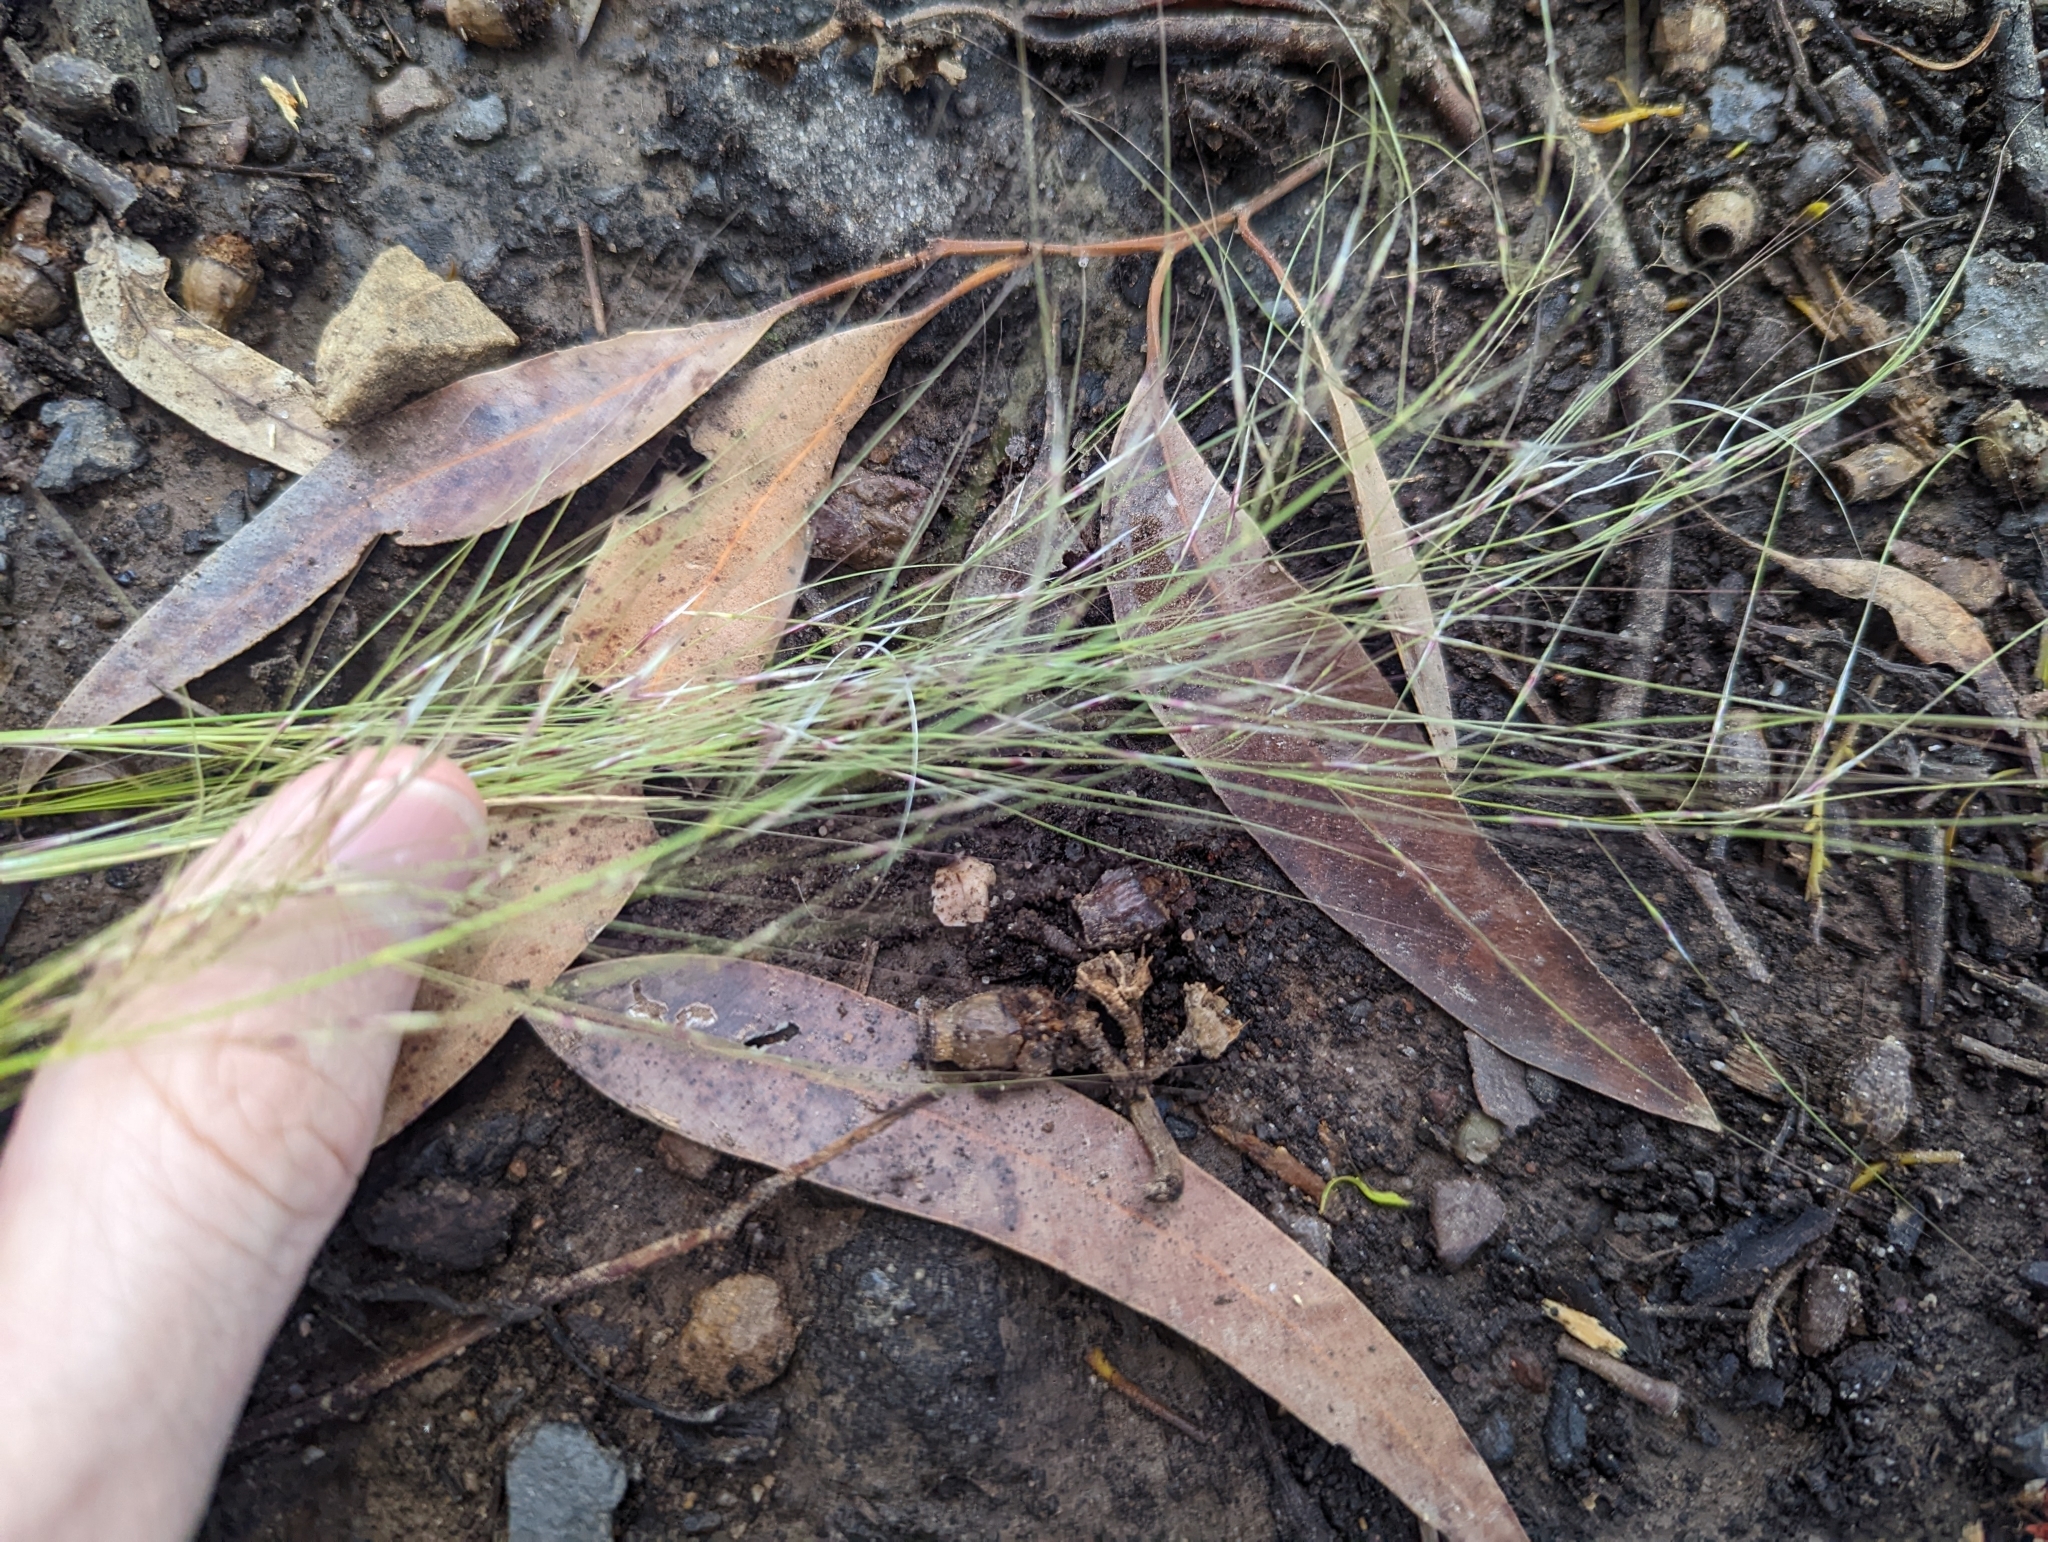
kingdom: Plantae
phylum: Tracheophyta
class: Liliopsida
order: Poales
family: Poaceae
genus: Austrostipa
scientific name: Austrostipa scabra
